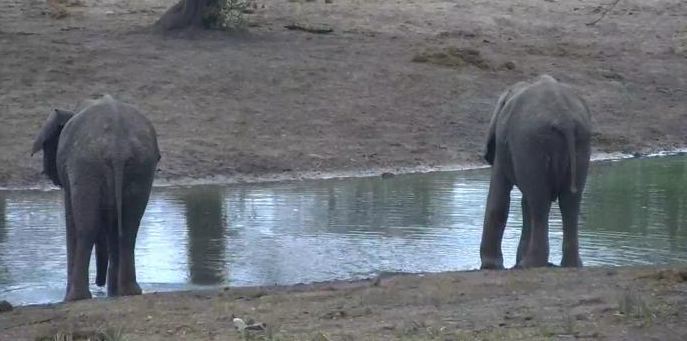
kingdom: Animalia
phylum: Chordata
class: Mammalia
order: Proboscidea
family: Elephantidae
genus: Loxodonta
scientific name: Loxodonta africana
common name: African elephant
